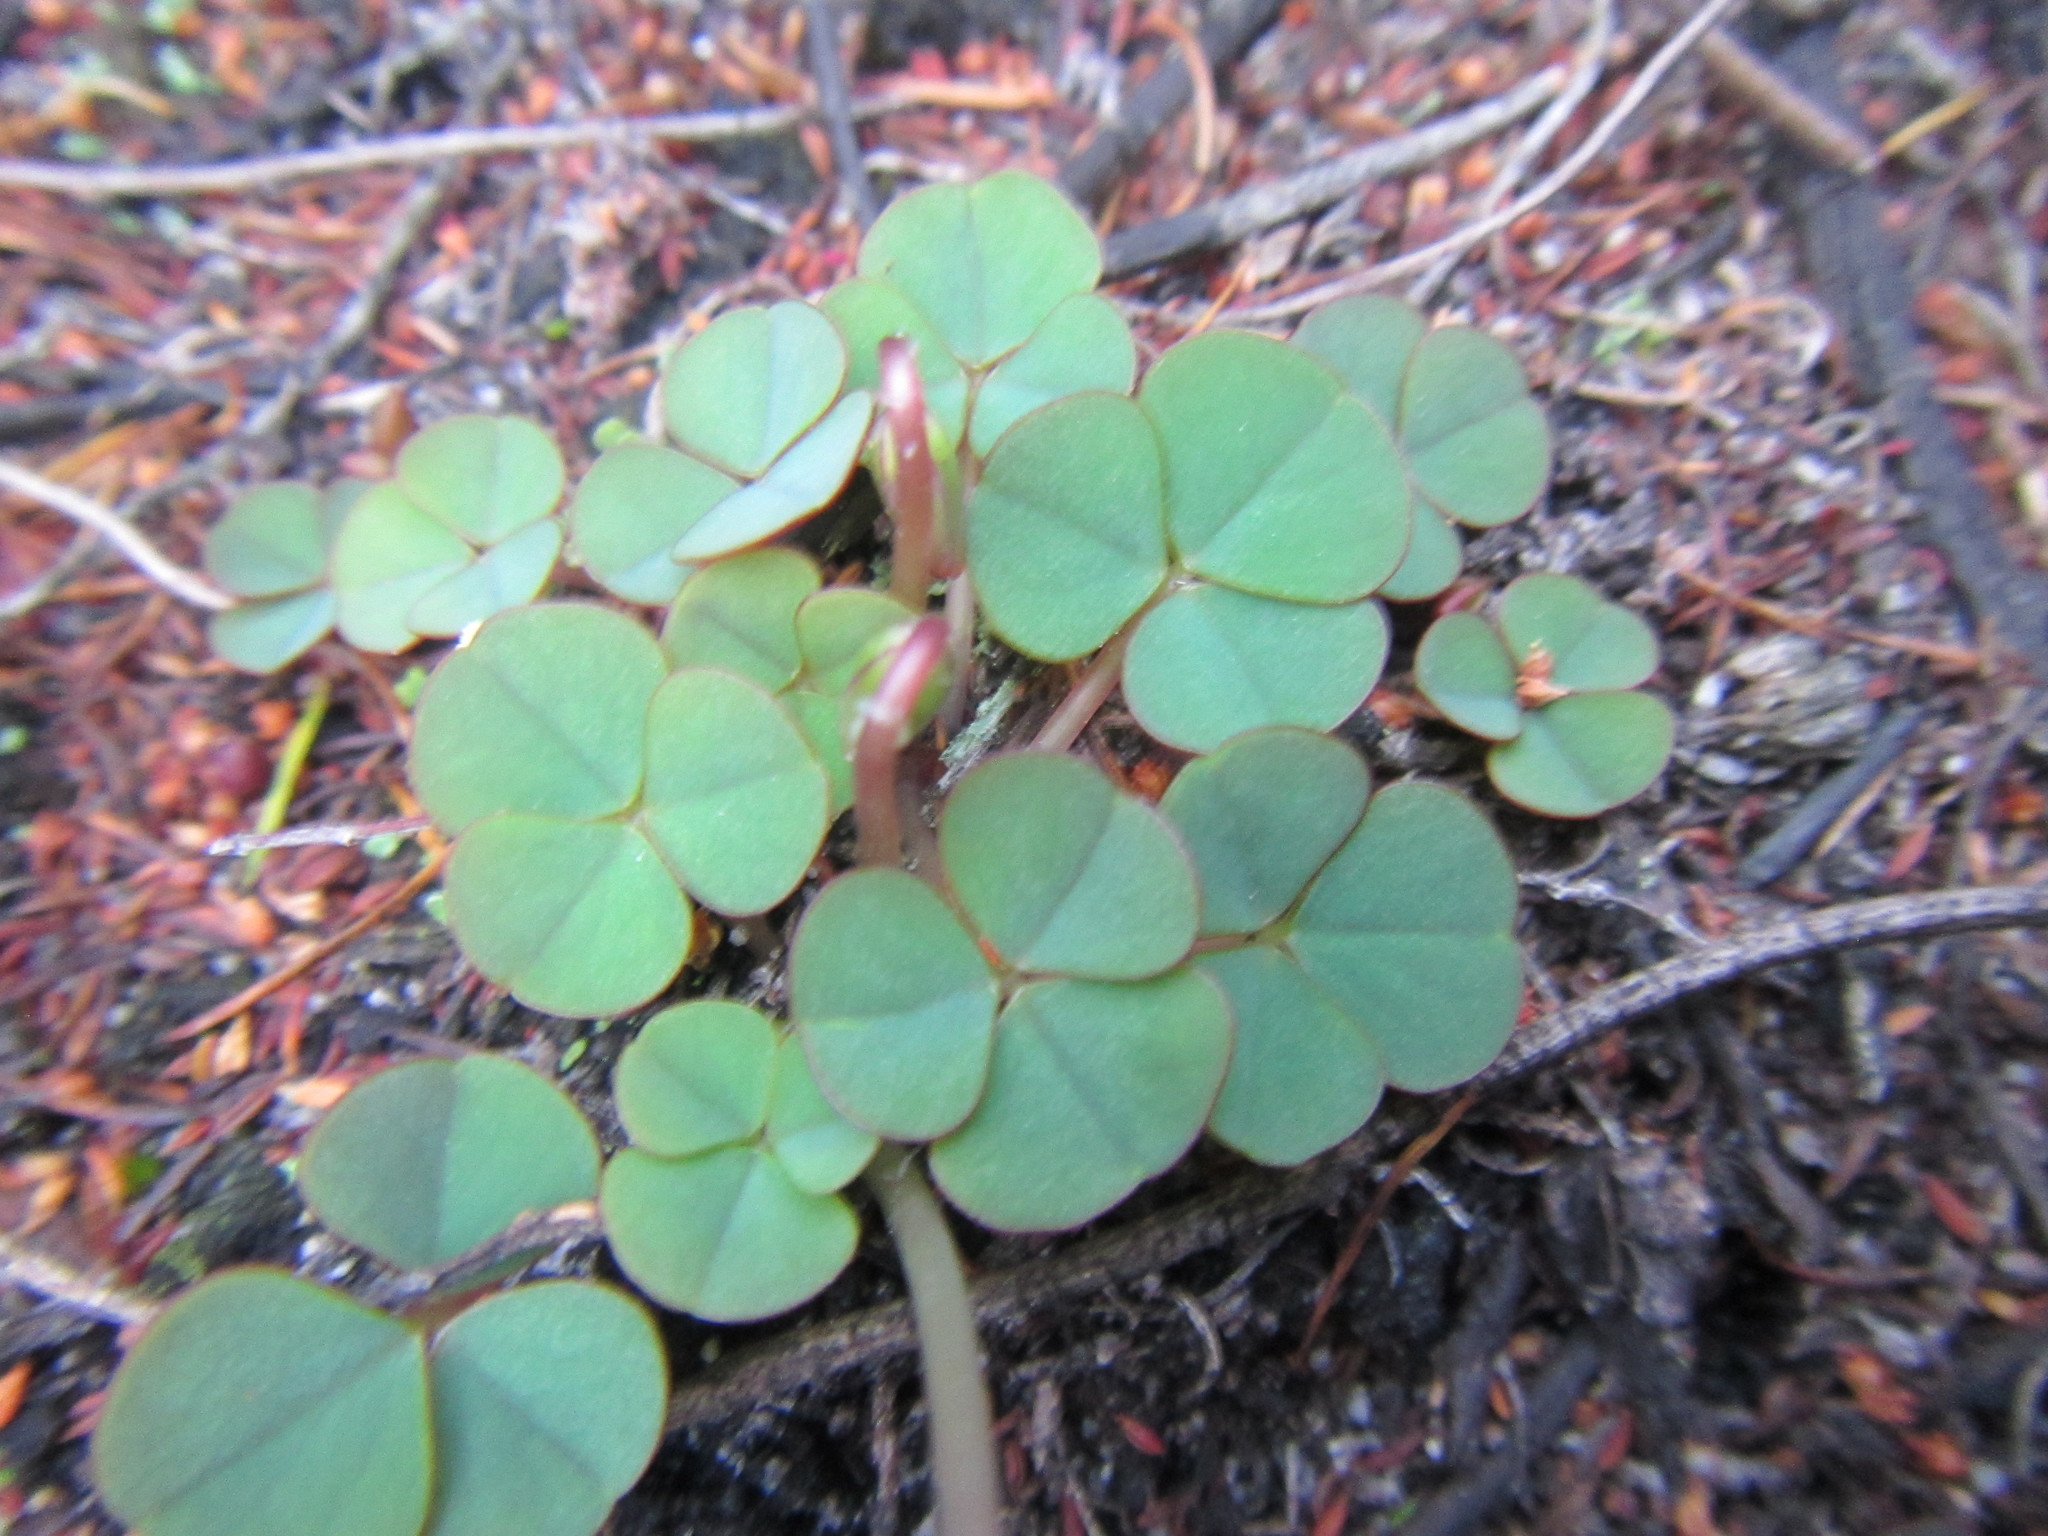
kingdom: Plantae
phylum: Tracheophyta
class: Magnoliopsida
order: Oxalidales
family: Oxalidaceae
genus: Oxalis
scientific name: Oxalis commutata
